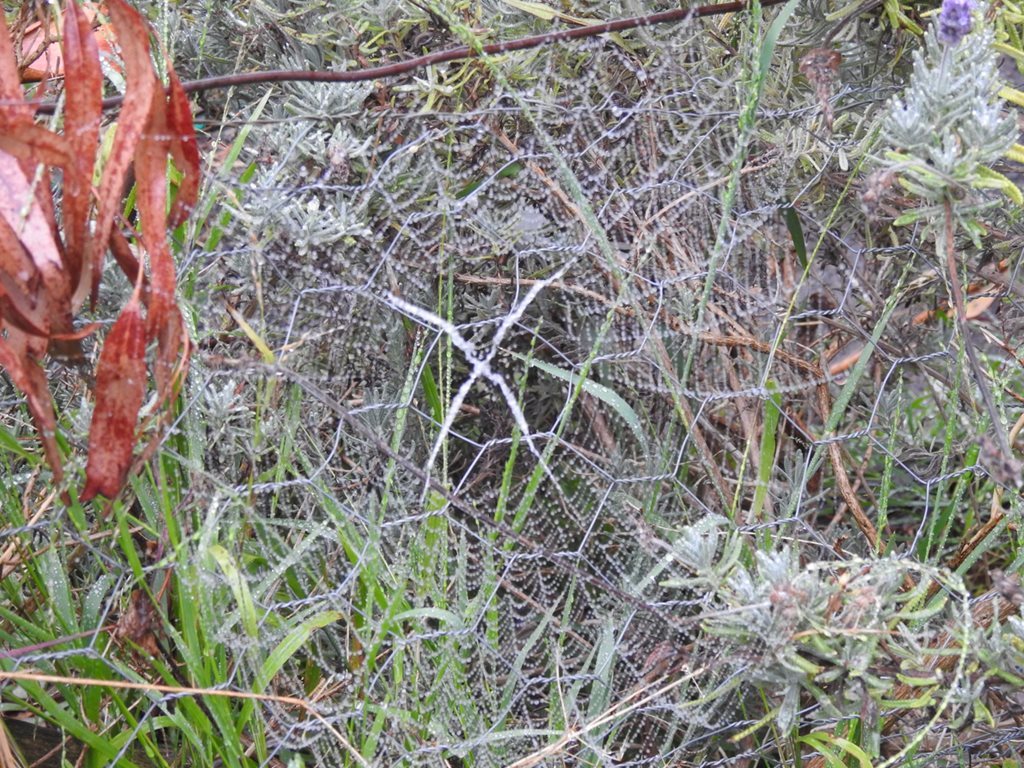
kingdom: Animalia
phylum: Arthropoda
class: Arachnida
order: Araneae
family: Araneidae
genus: Argiope
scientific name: Argiope keyserlingi
